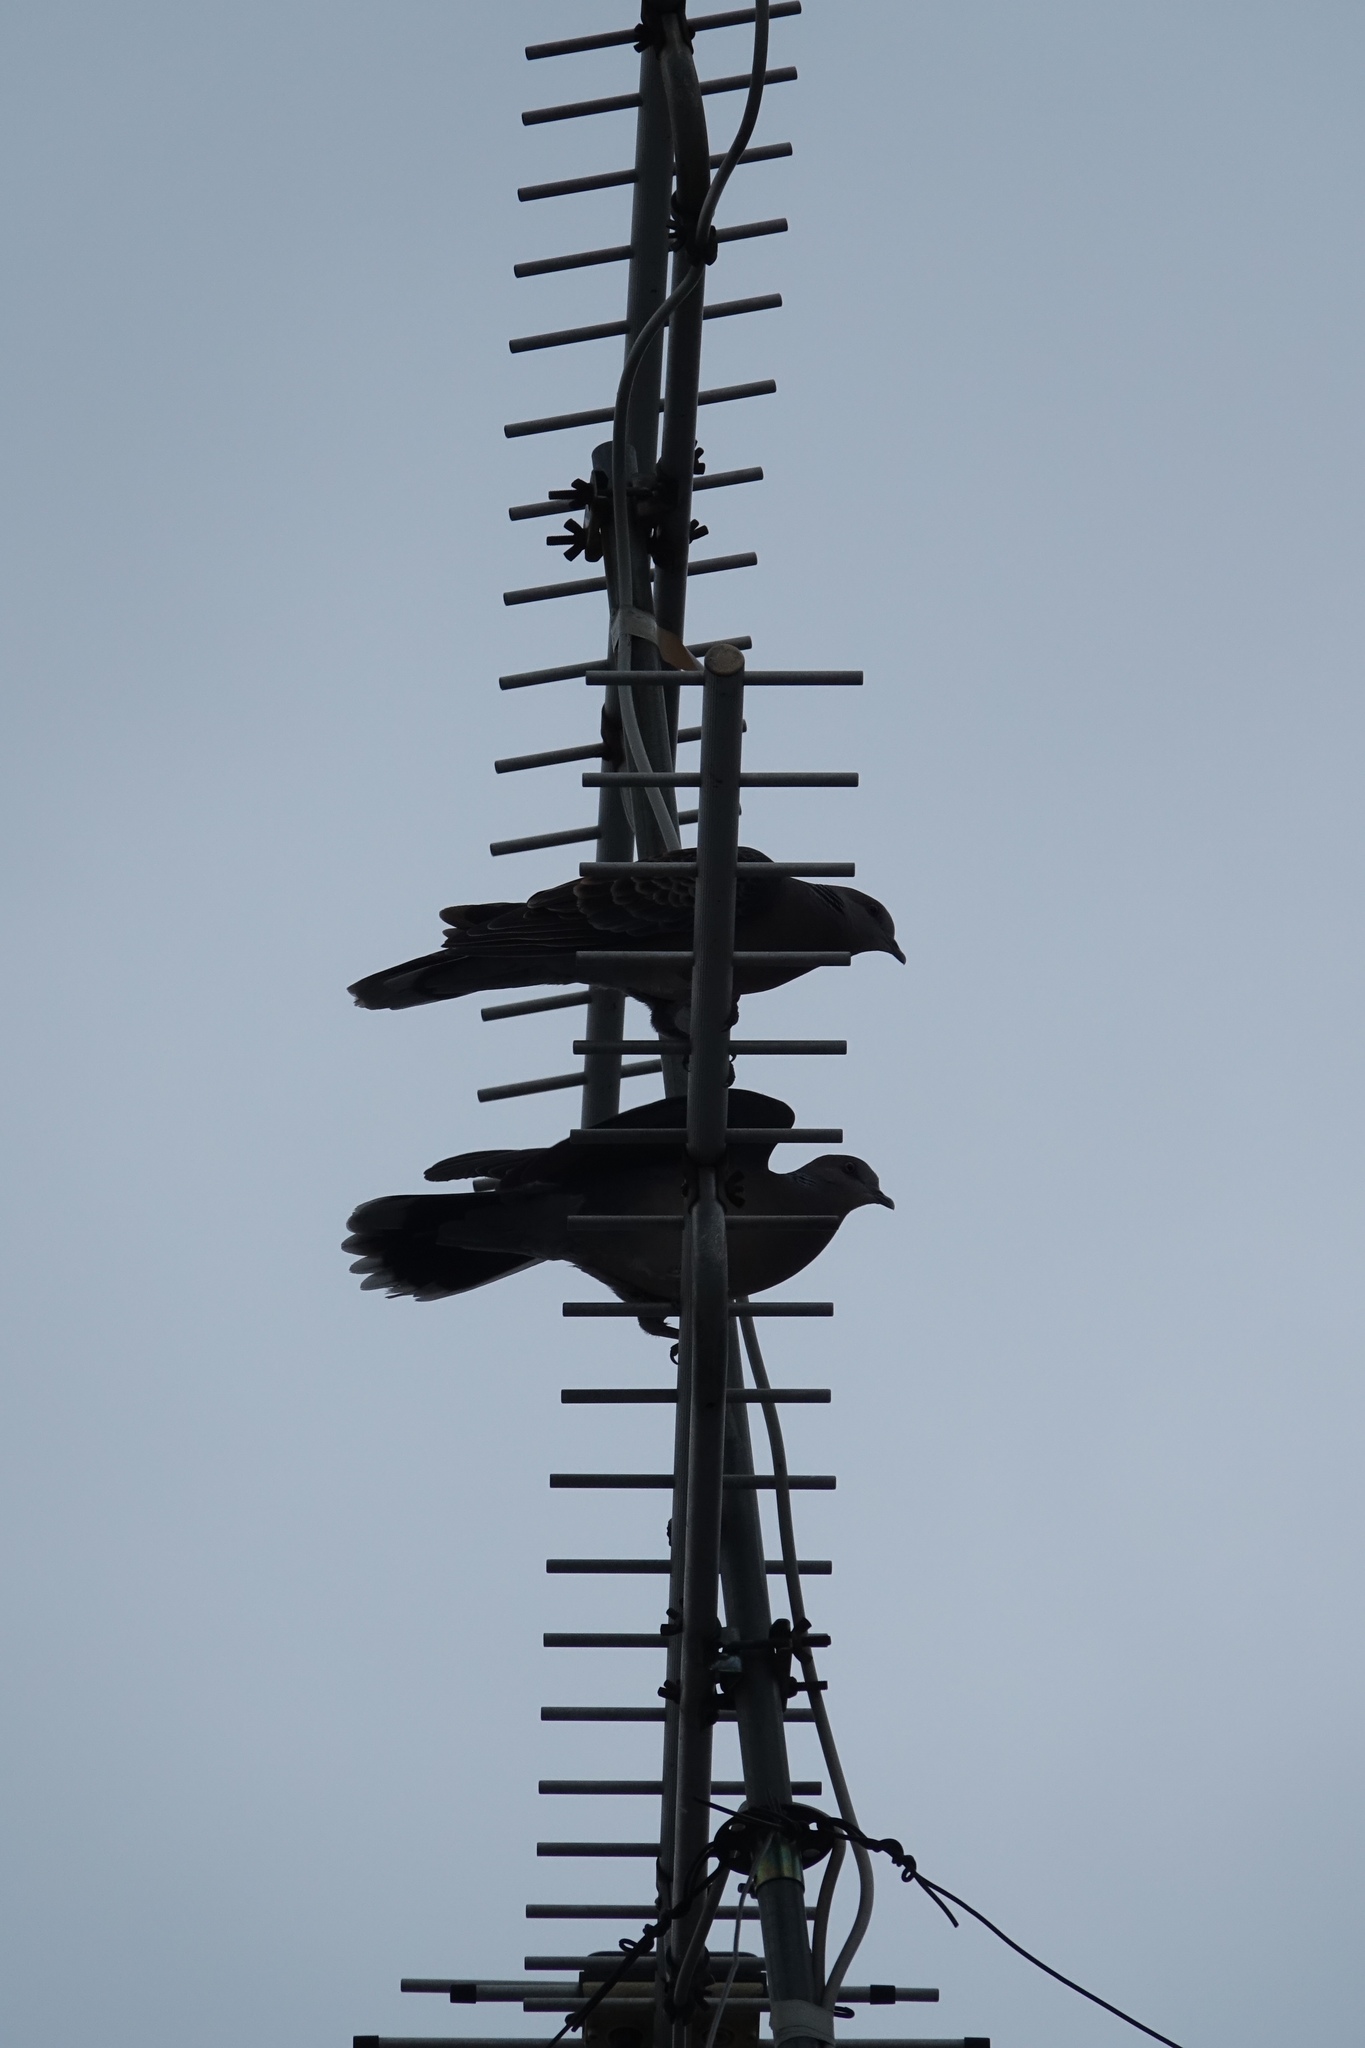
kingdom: Animalia
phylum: Chordata
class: Aves
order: Columbiformes
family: Columbidae
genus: Streptopelia
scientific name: Streptopelia orientalis
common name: Oriental turtle dove
